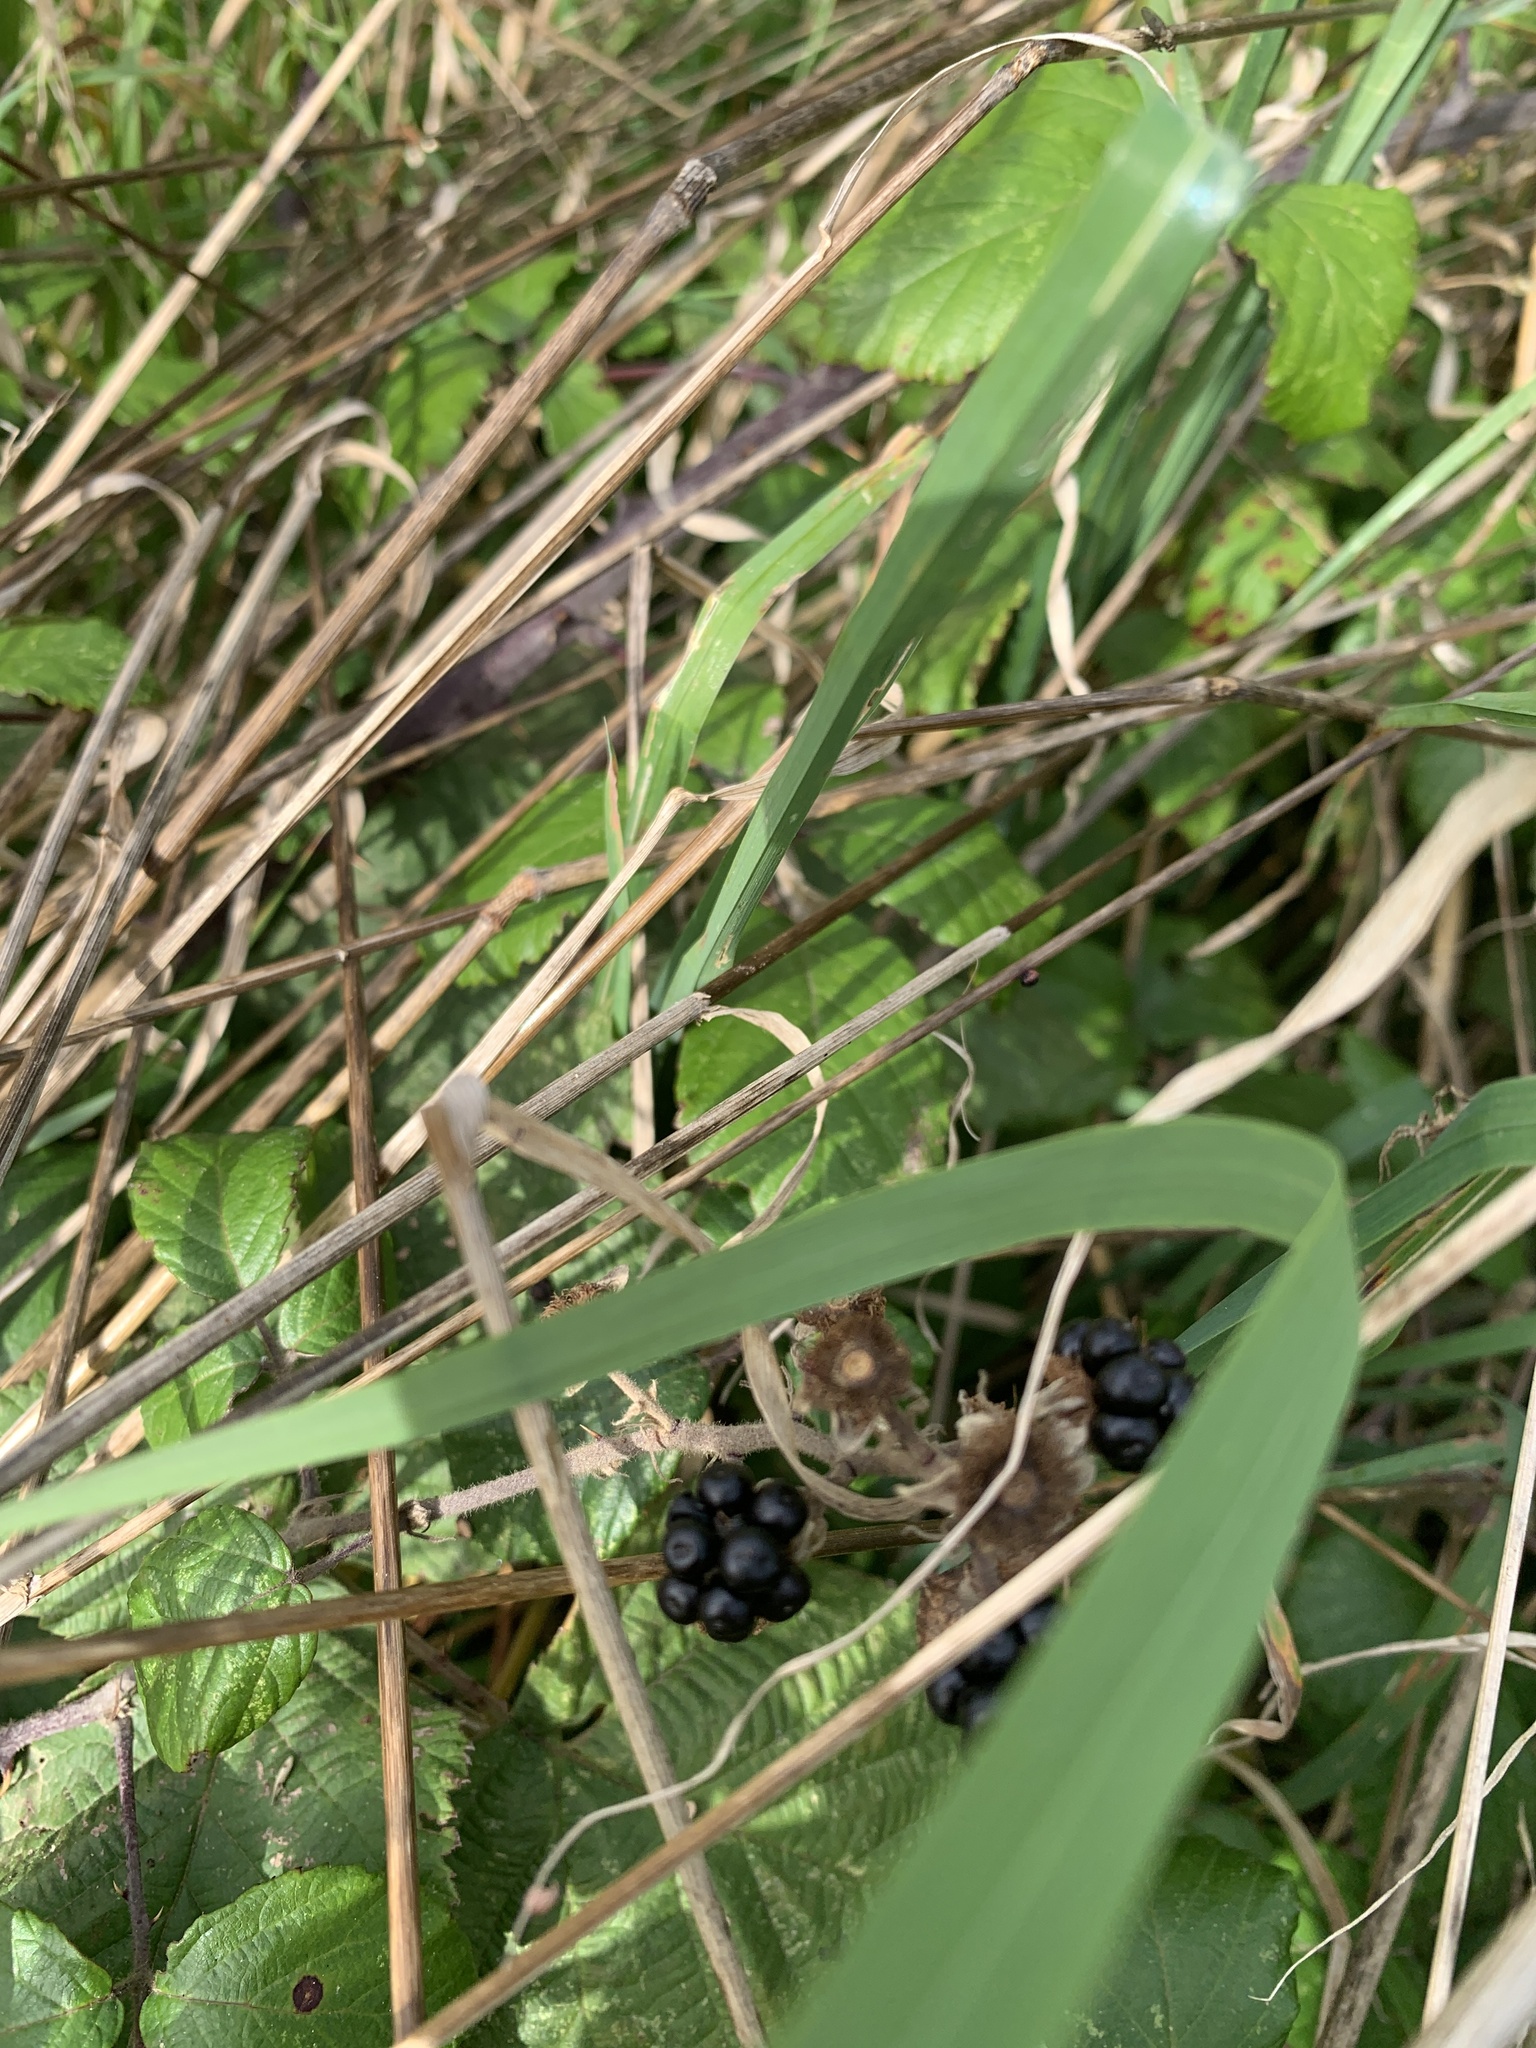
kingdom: Plantae
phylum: Tracheophyta
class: Magnoliopsida
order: Rosales
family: Rosaceae
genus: Rubus
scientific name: Rubus fruticosus
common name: Blackberry, bramble
